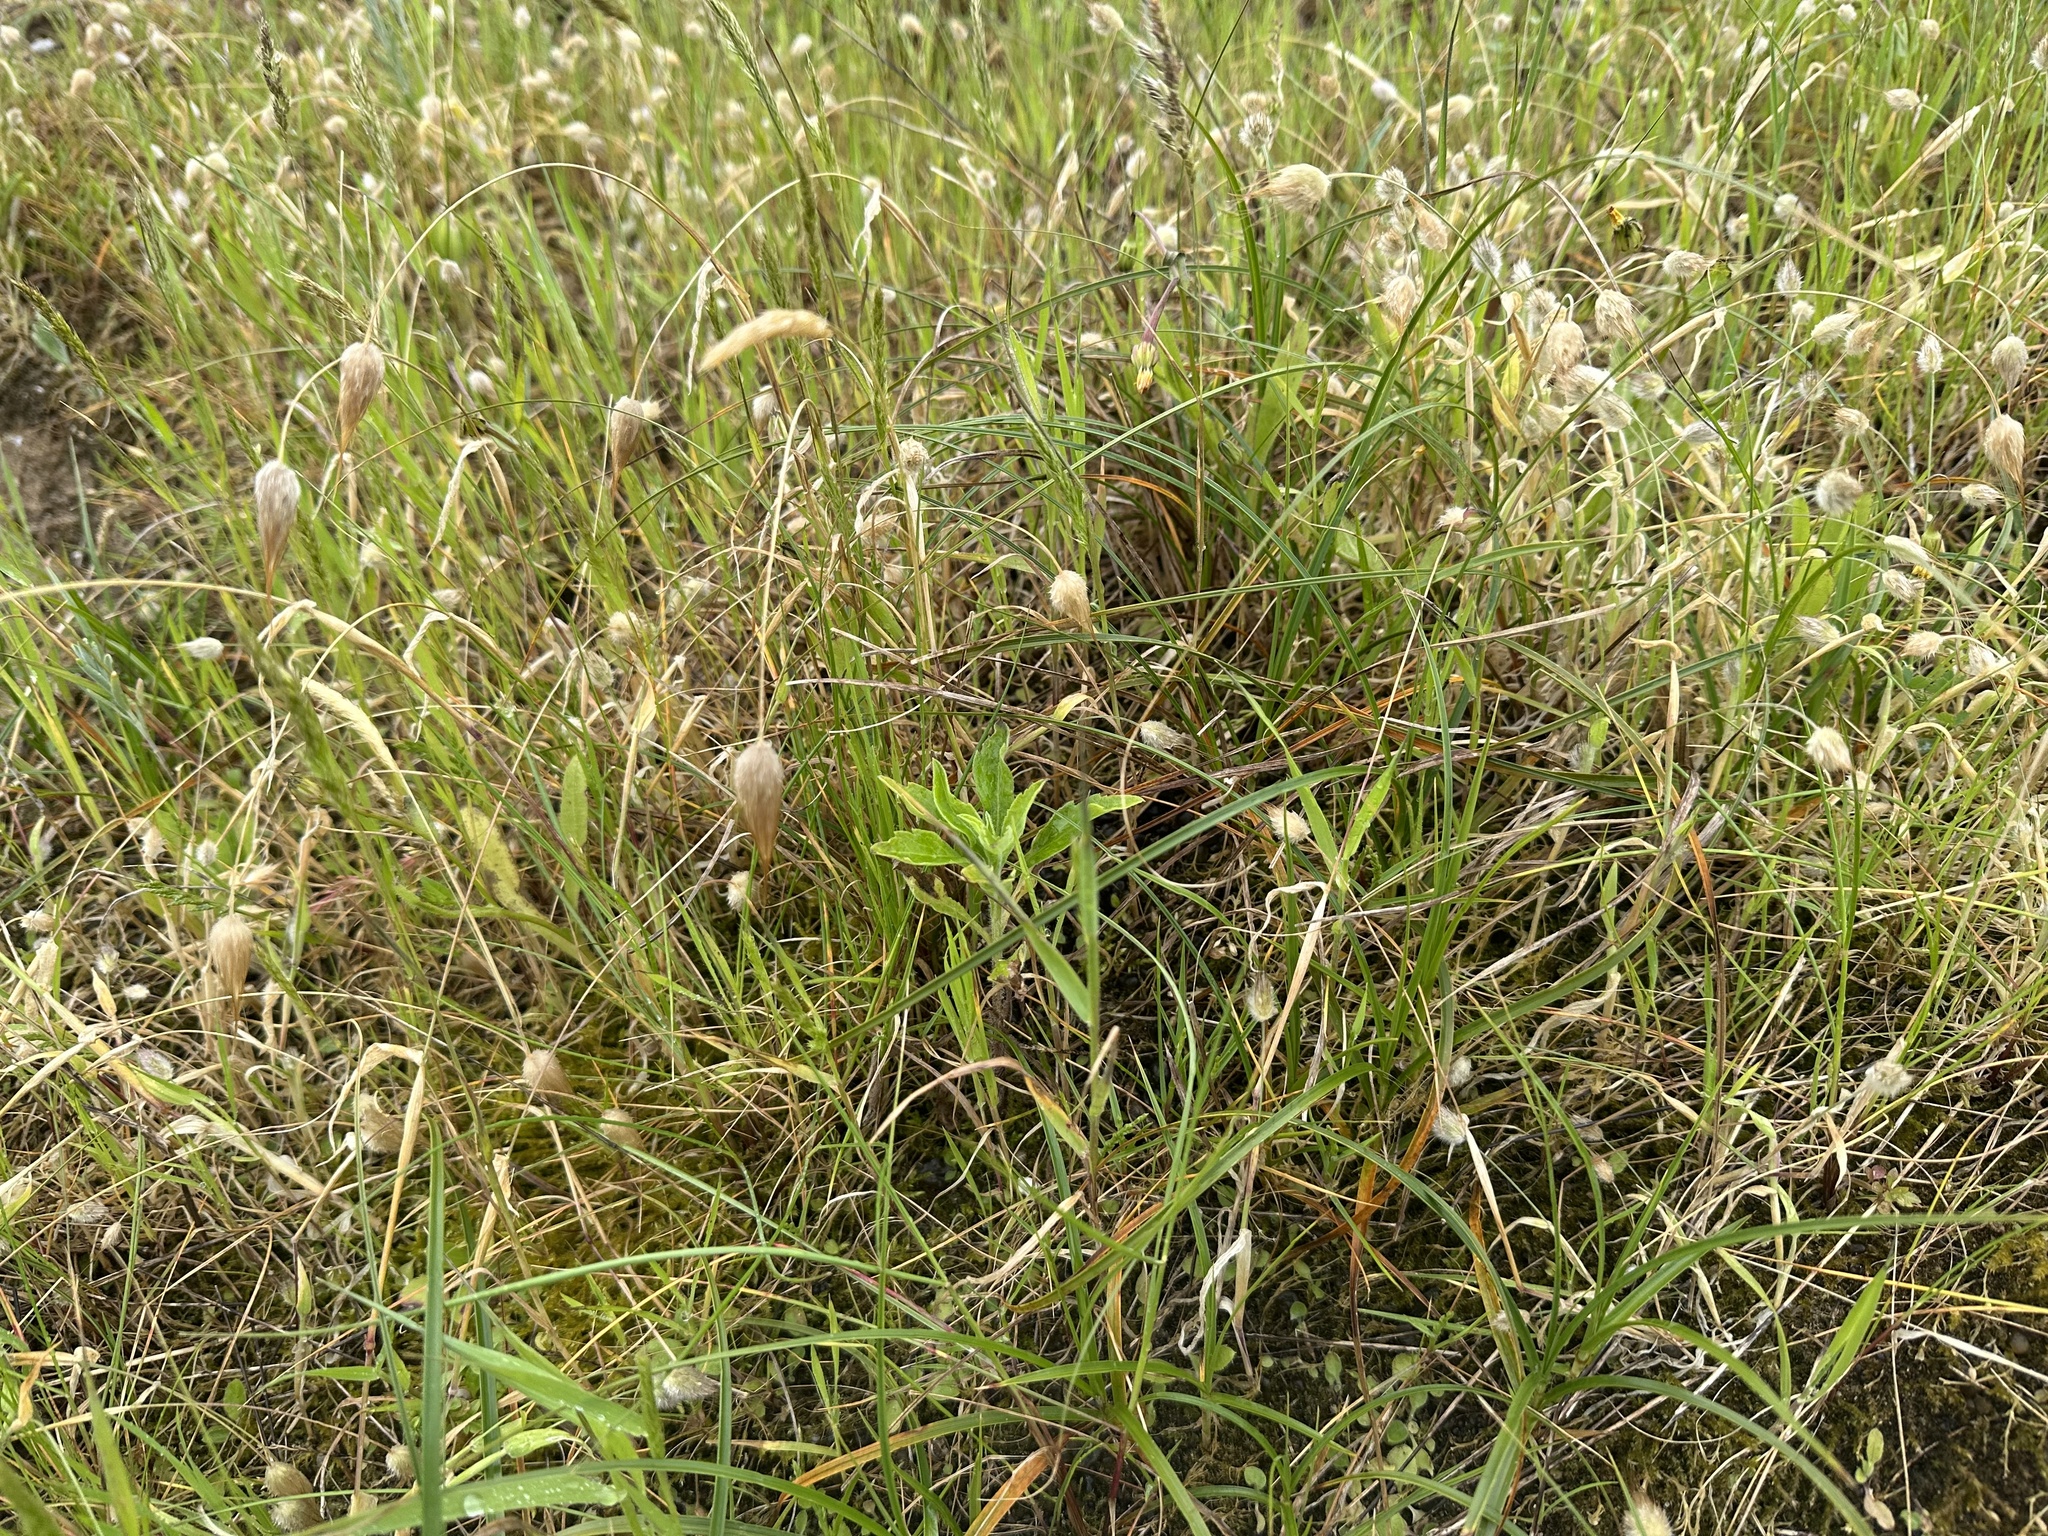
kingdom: Plantae
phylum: Tracheophyta
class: Liliopsida
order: Poales
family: Poaceae
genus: Lagurus
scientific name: Lagurus ovatus
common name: Hare's-tail
